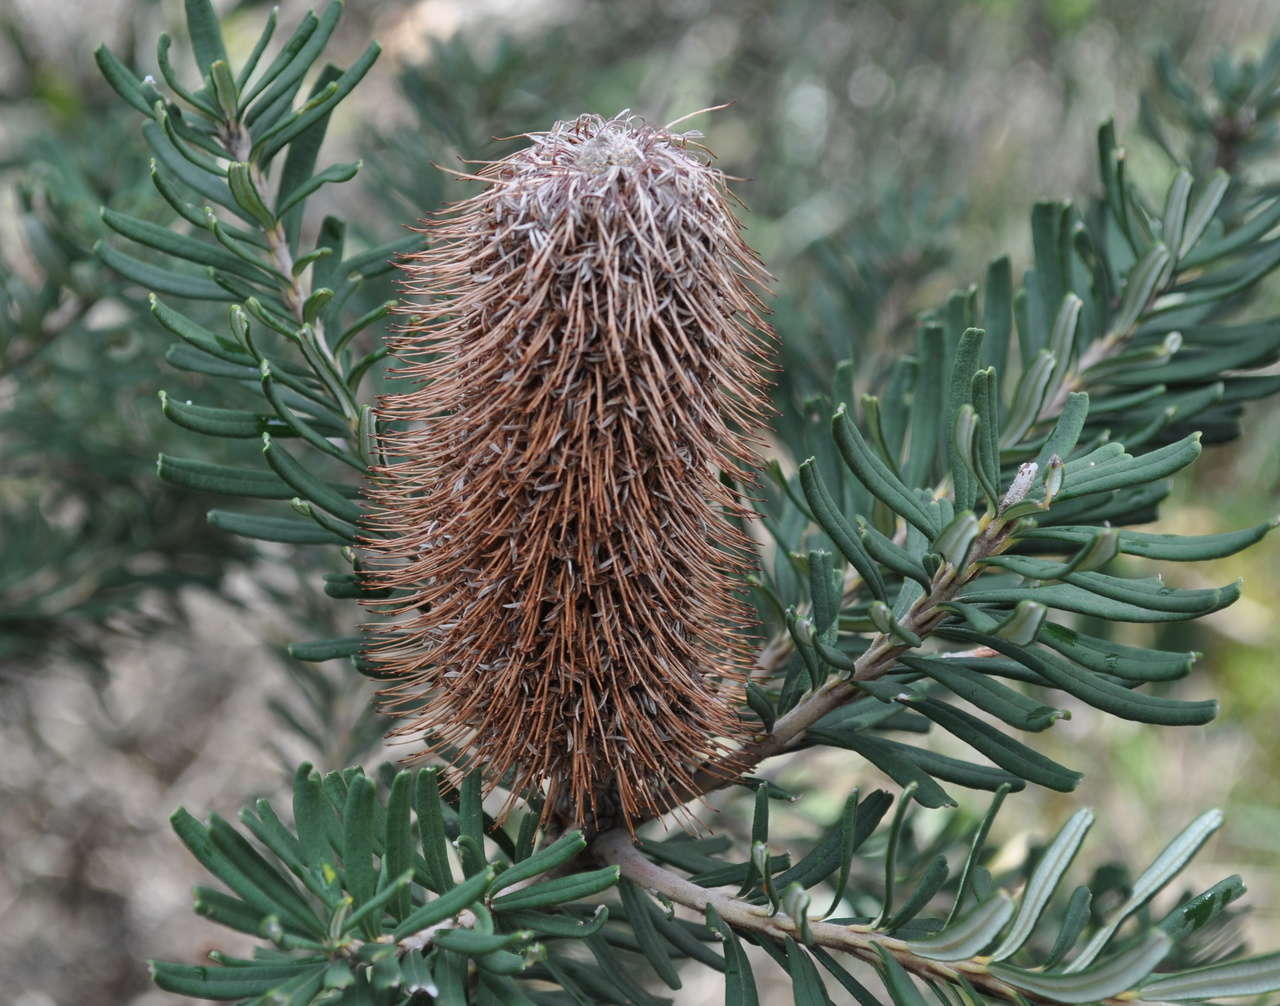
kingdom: Plantae
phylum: Tracheophyta
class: Magnoliopsida
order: Proteales
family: Proteaceae
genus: Banksia
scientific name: Banksia marginata
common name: Silver banksia
